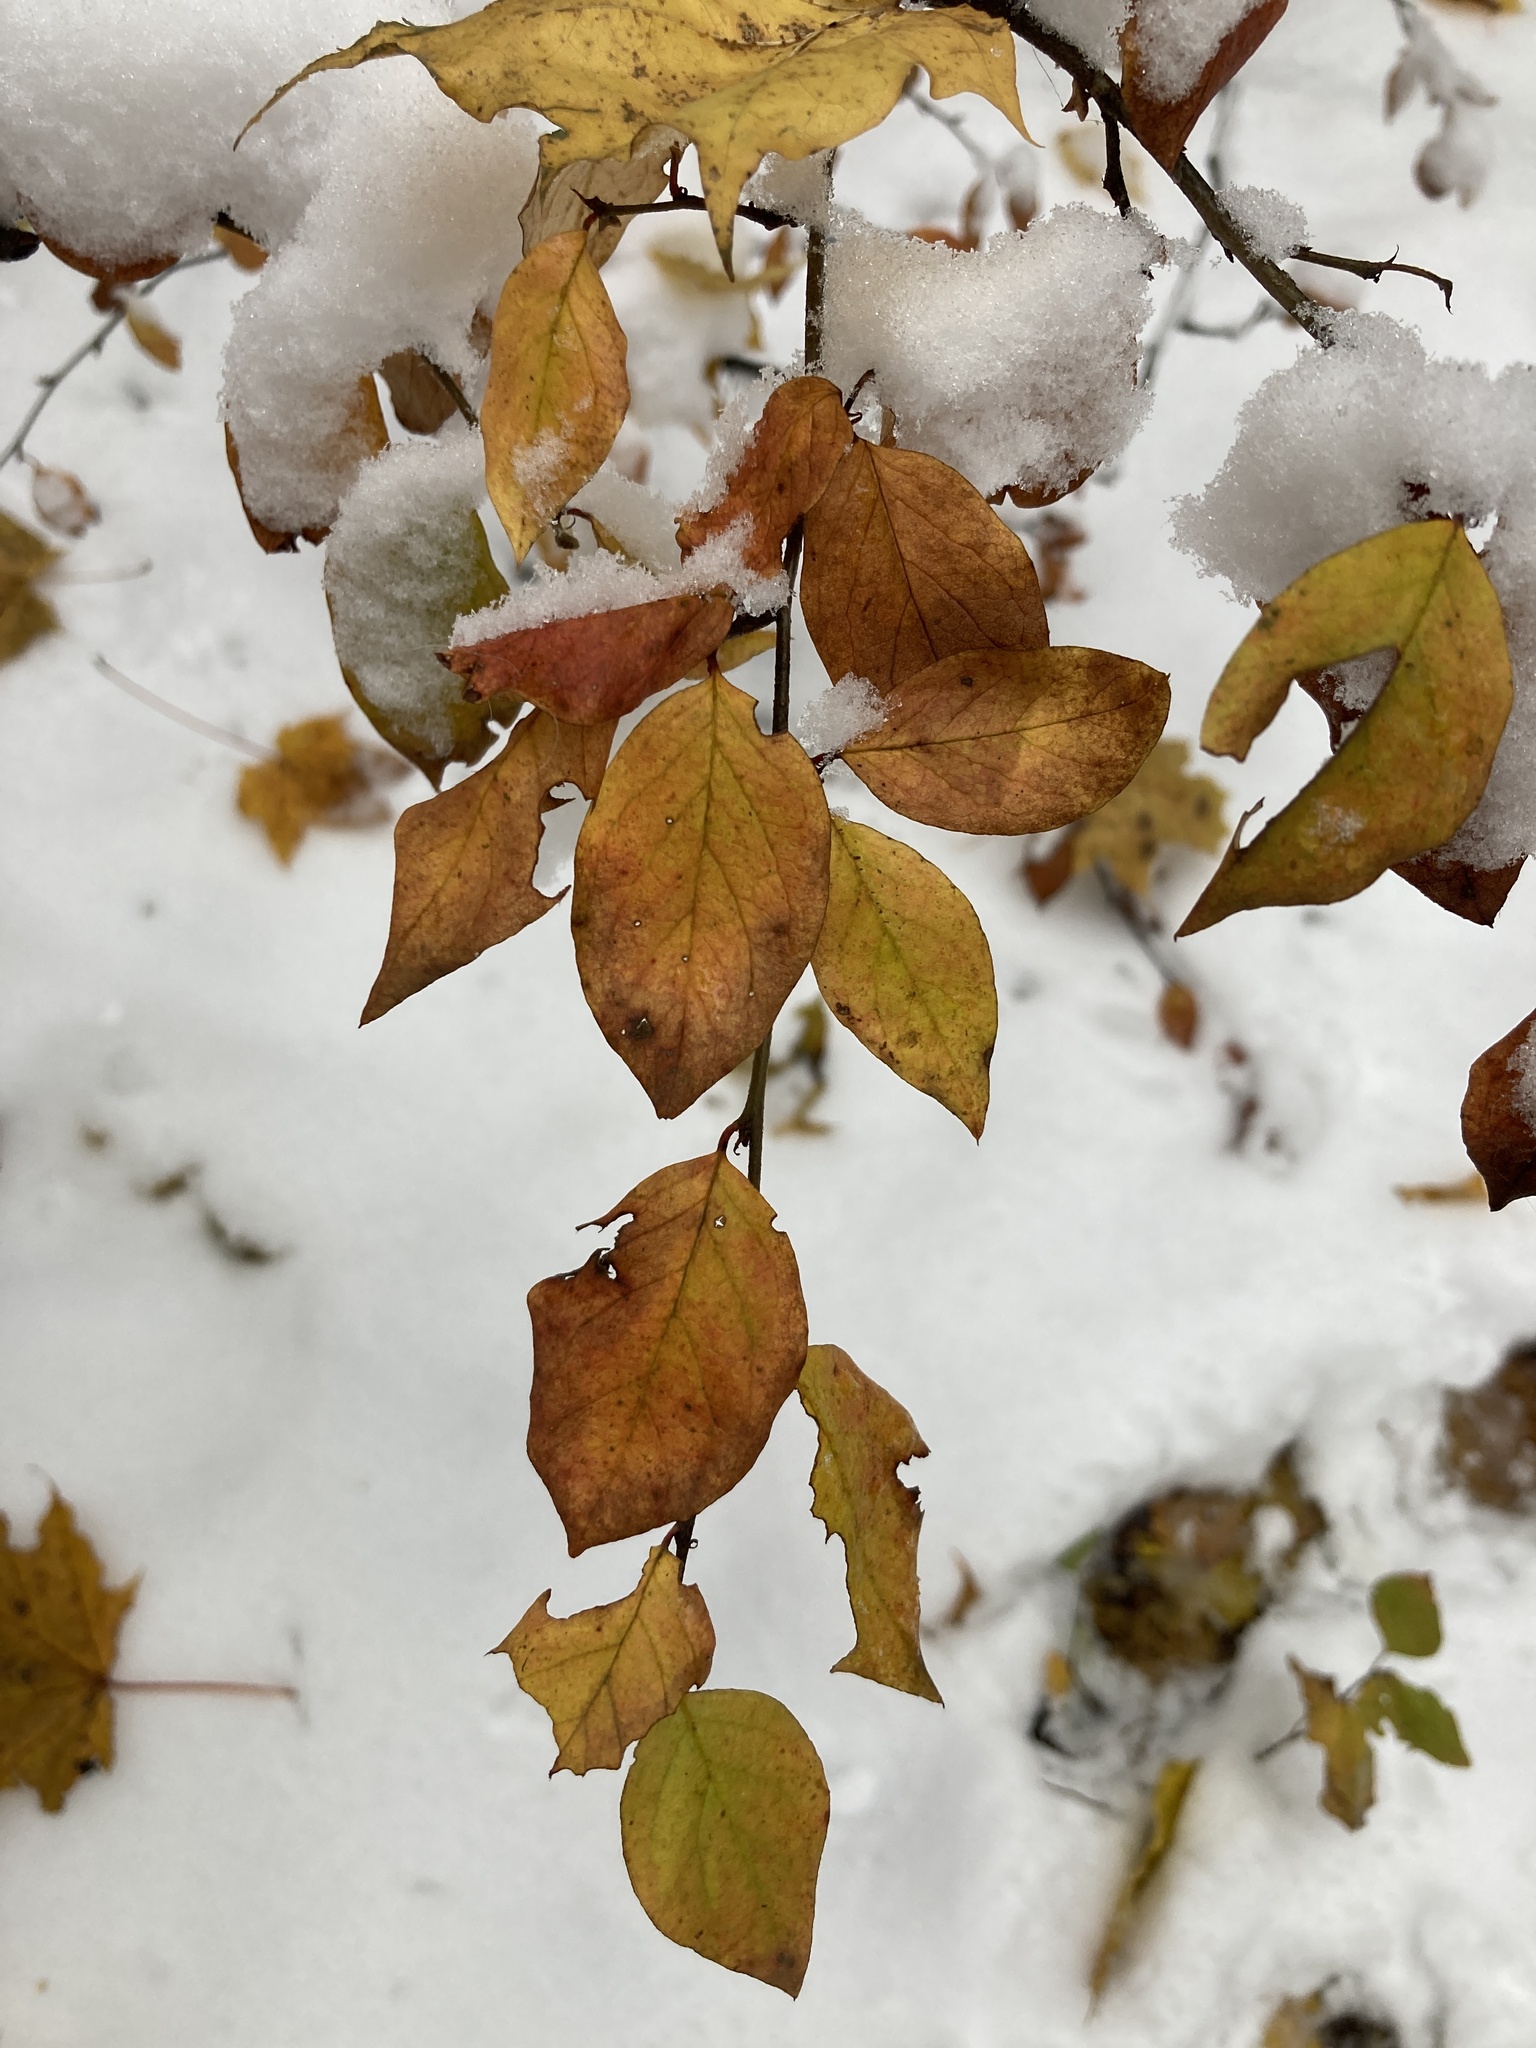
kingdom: Plantae
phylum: Tracheophyta
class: Magnoliopsida
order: Rosales
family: Rosaceae
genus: Cotoneaster
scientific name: Cotoneaster acutifolius
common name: Peking cotoneaster
